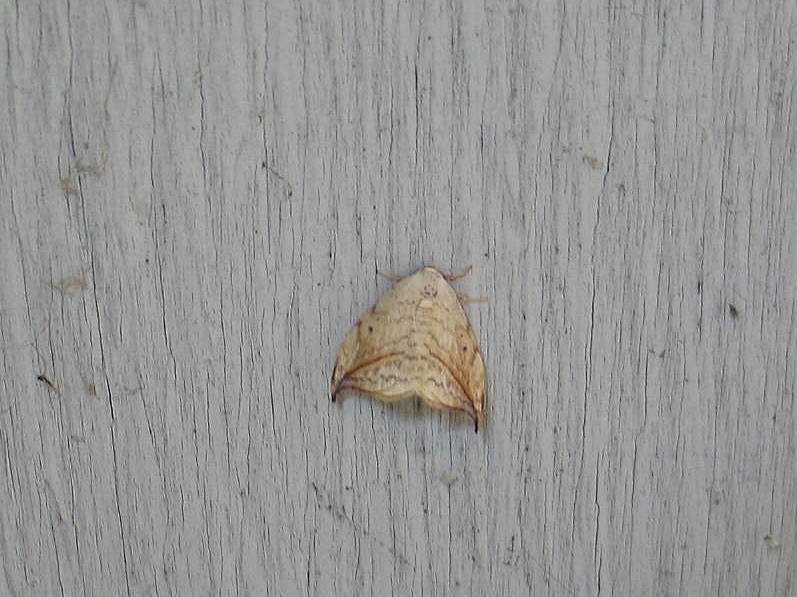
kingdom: Animalia
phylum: Arthropoda
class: Insecta
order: Lepidoptera
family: Drepanidae
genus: Drepana
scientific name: Drepana arcuata
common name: Arched hooktip moth
